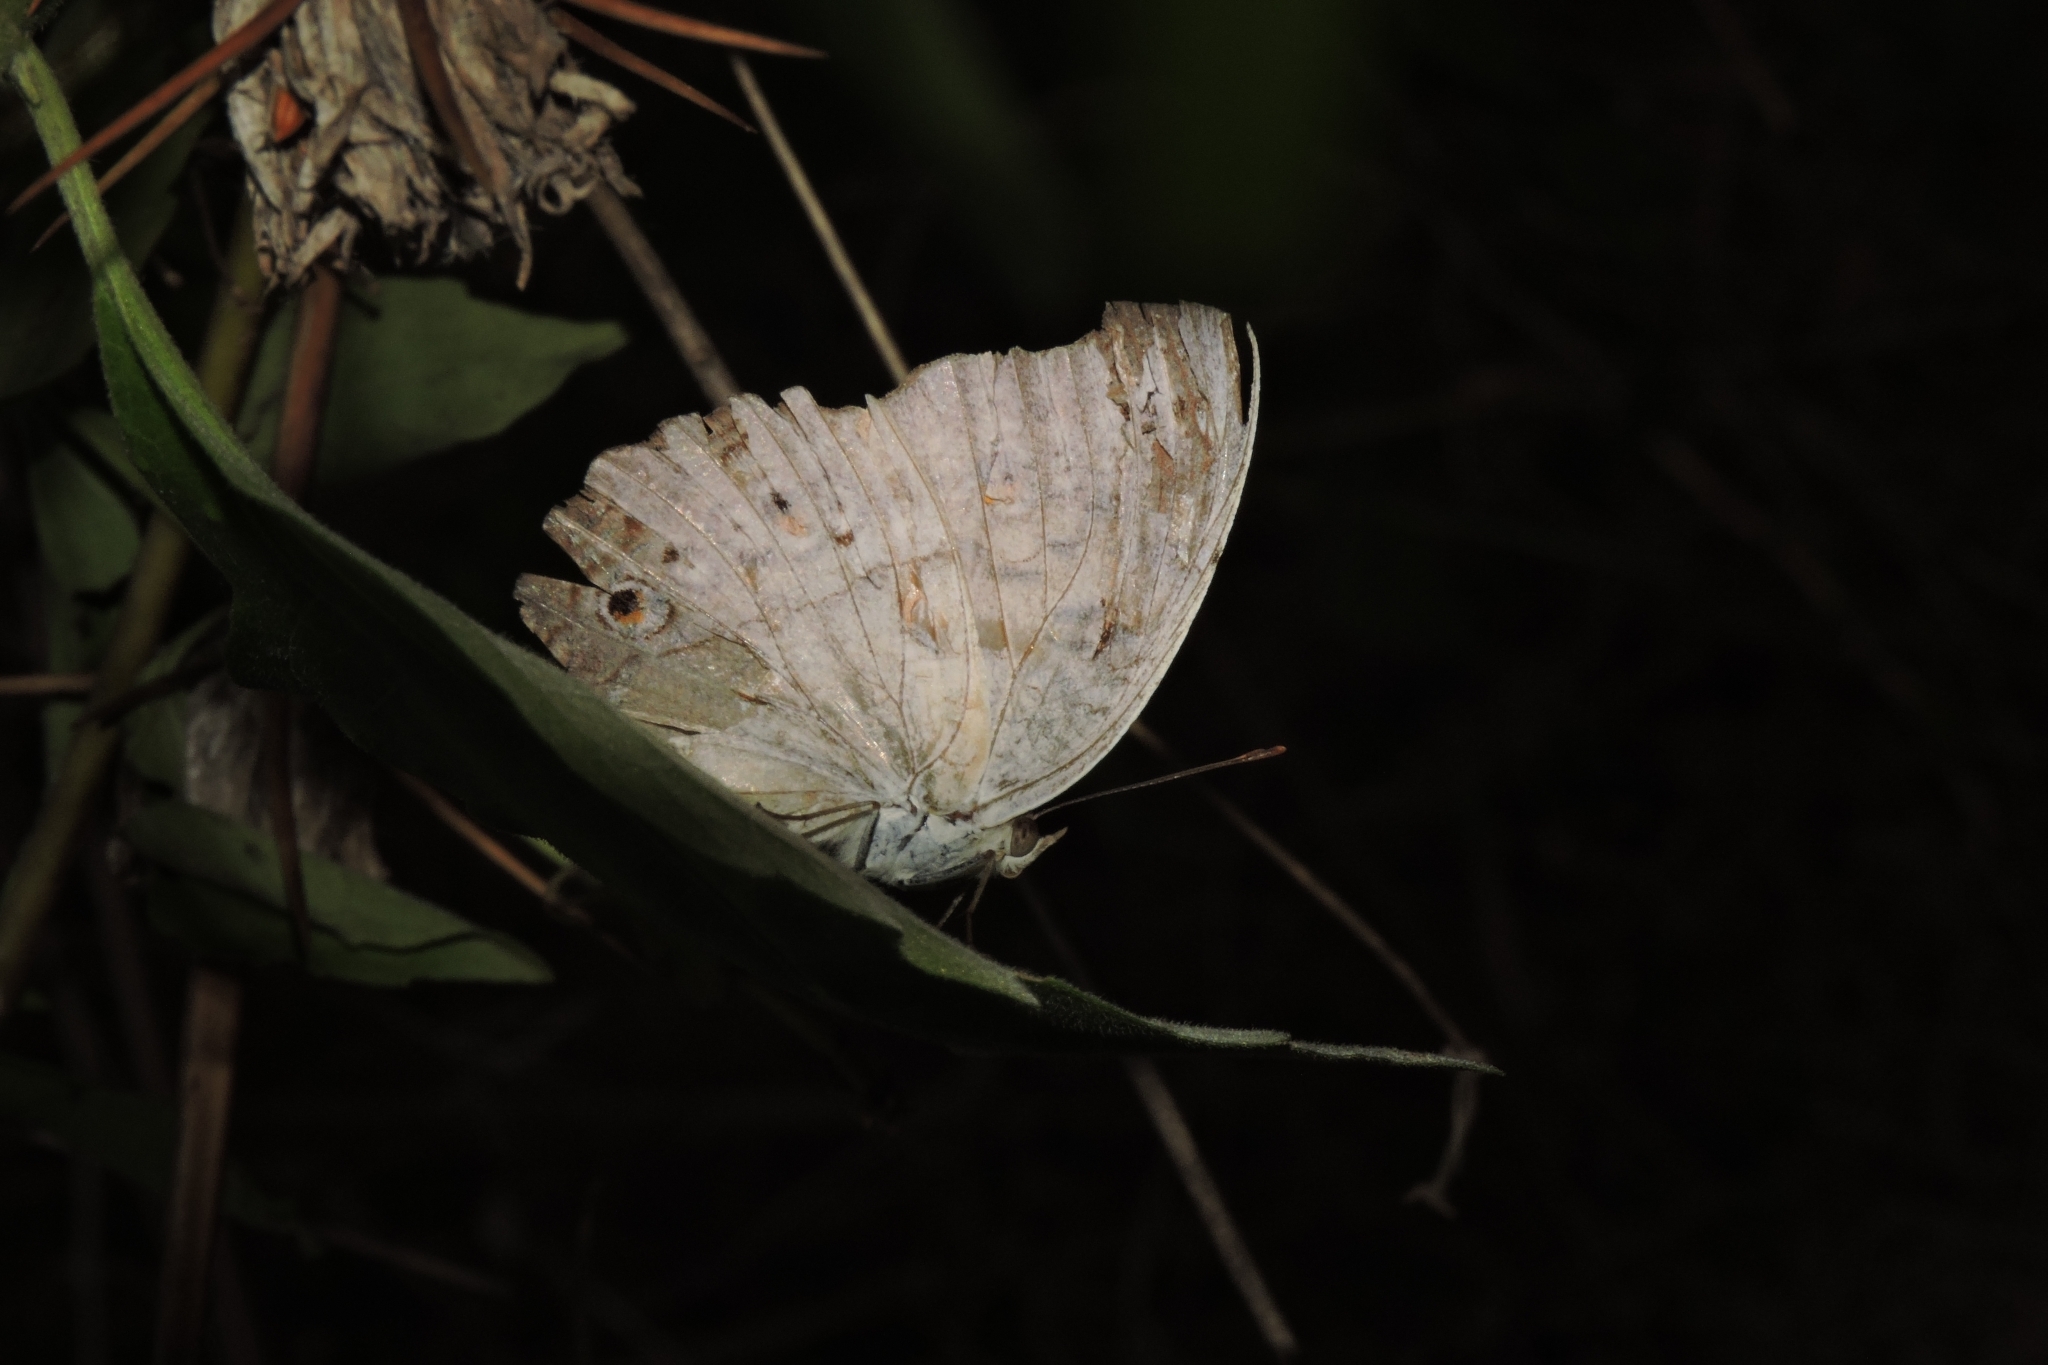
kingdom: Animalia
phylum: Arthropoda
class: Insecta
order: Lepidoptera
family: Nymphalidae
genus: Junonia
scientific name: Junonia atlites
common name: Grey pansy
